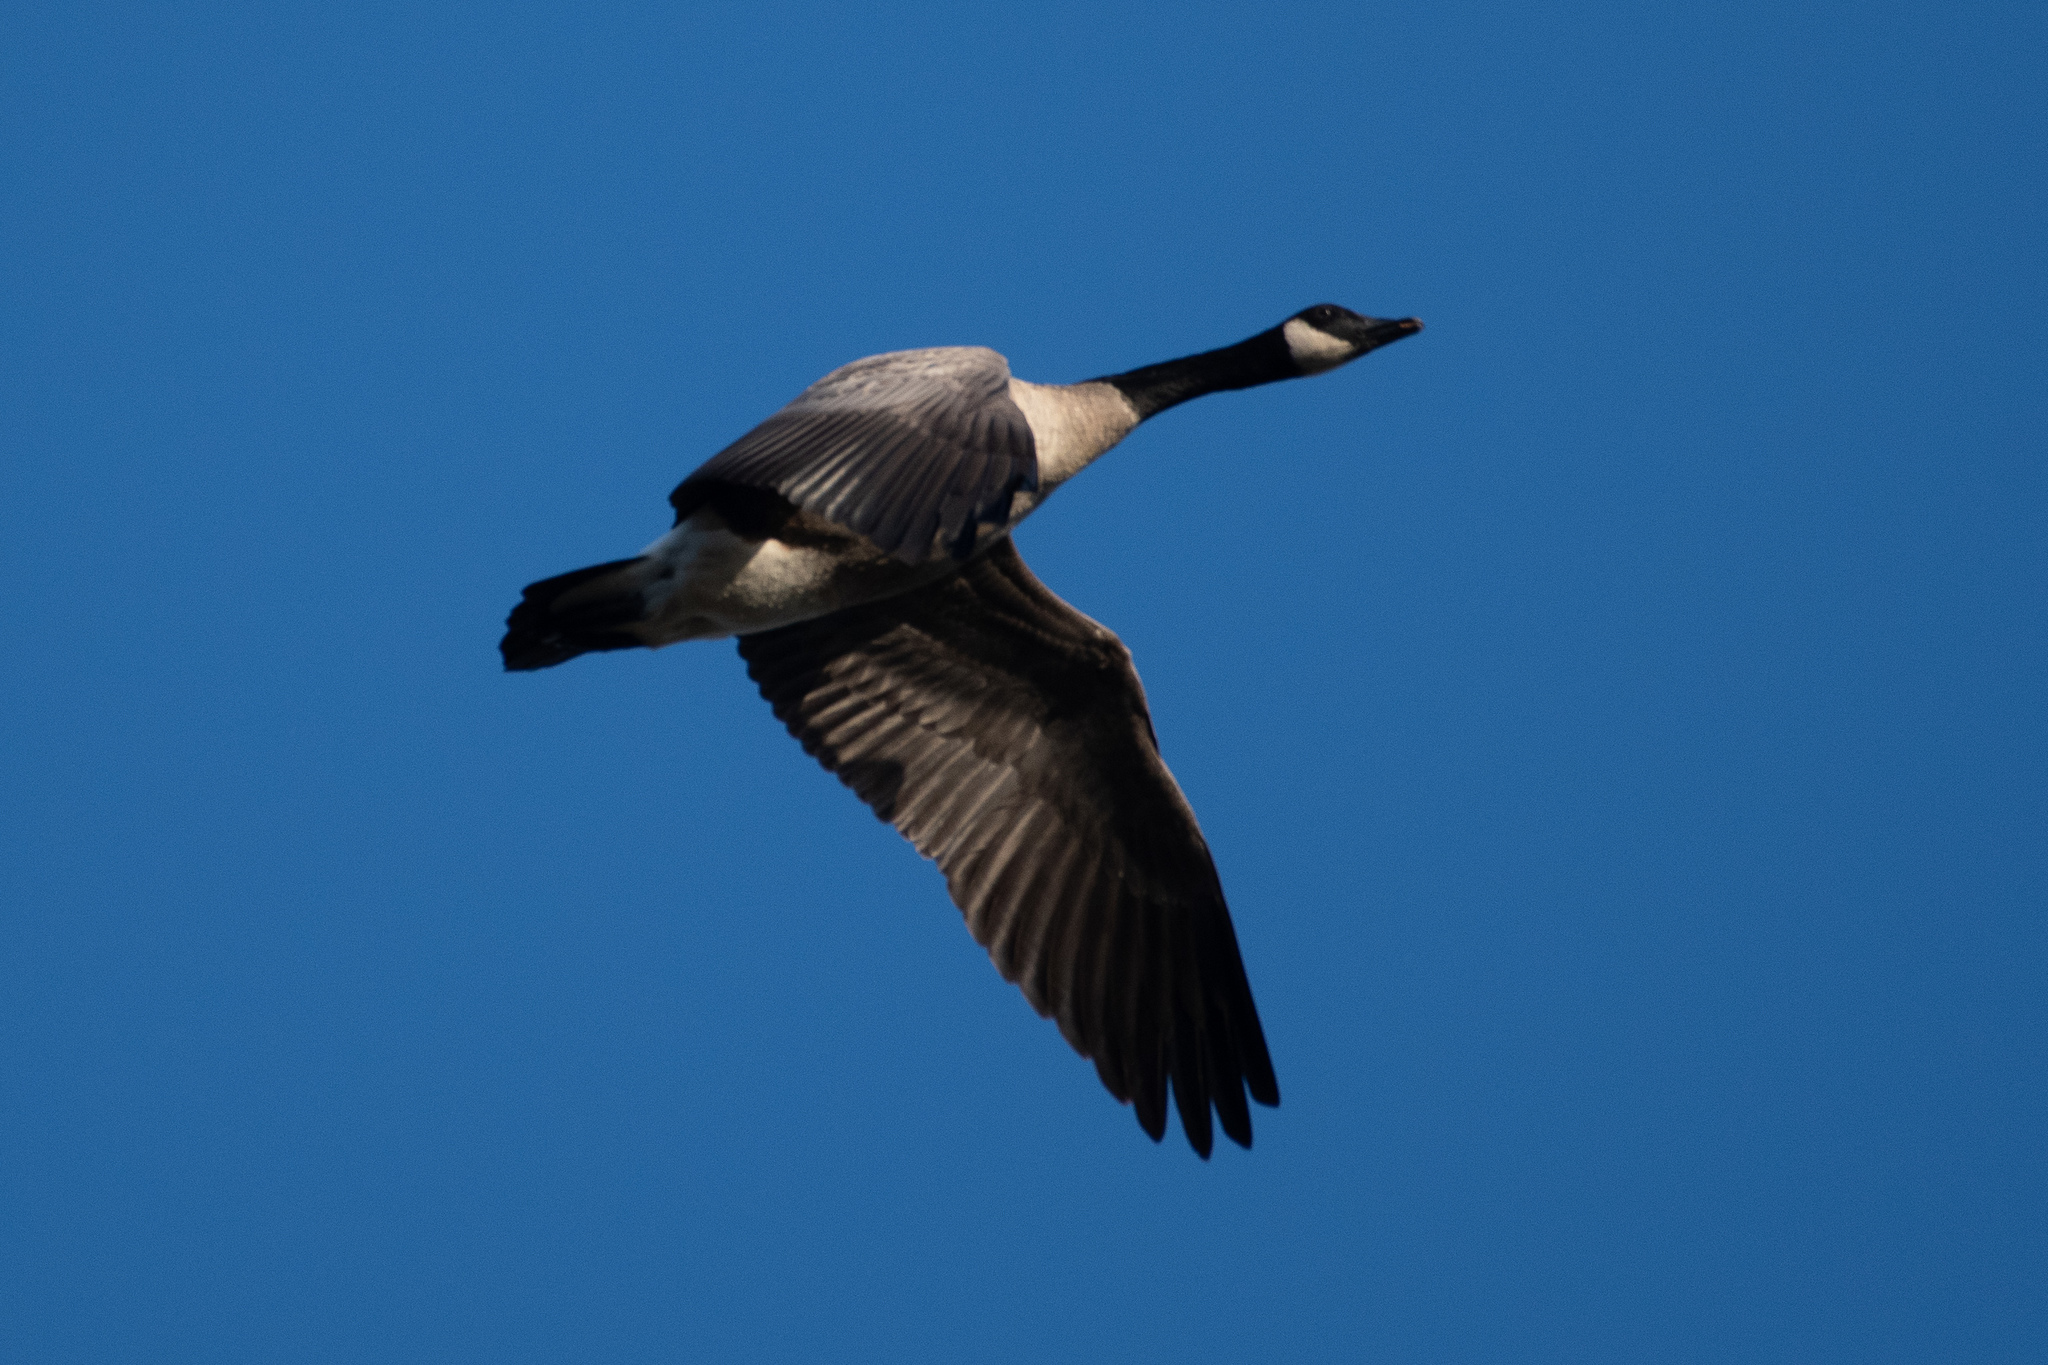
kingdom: Animalia
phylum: Chordata
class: Aves
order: Anseriformes
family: Anatidae
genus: Branta
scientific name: Branta canadensis
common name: Canada goose
